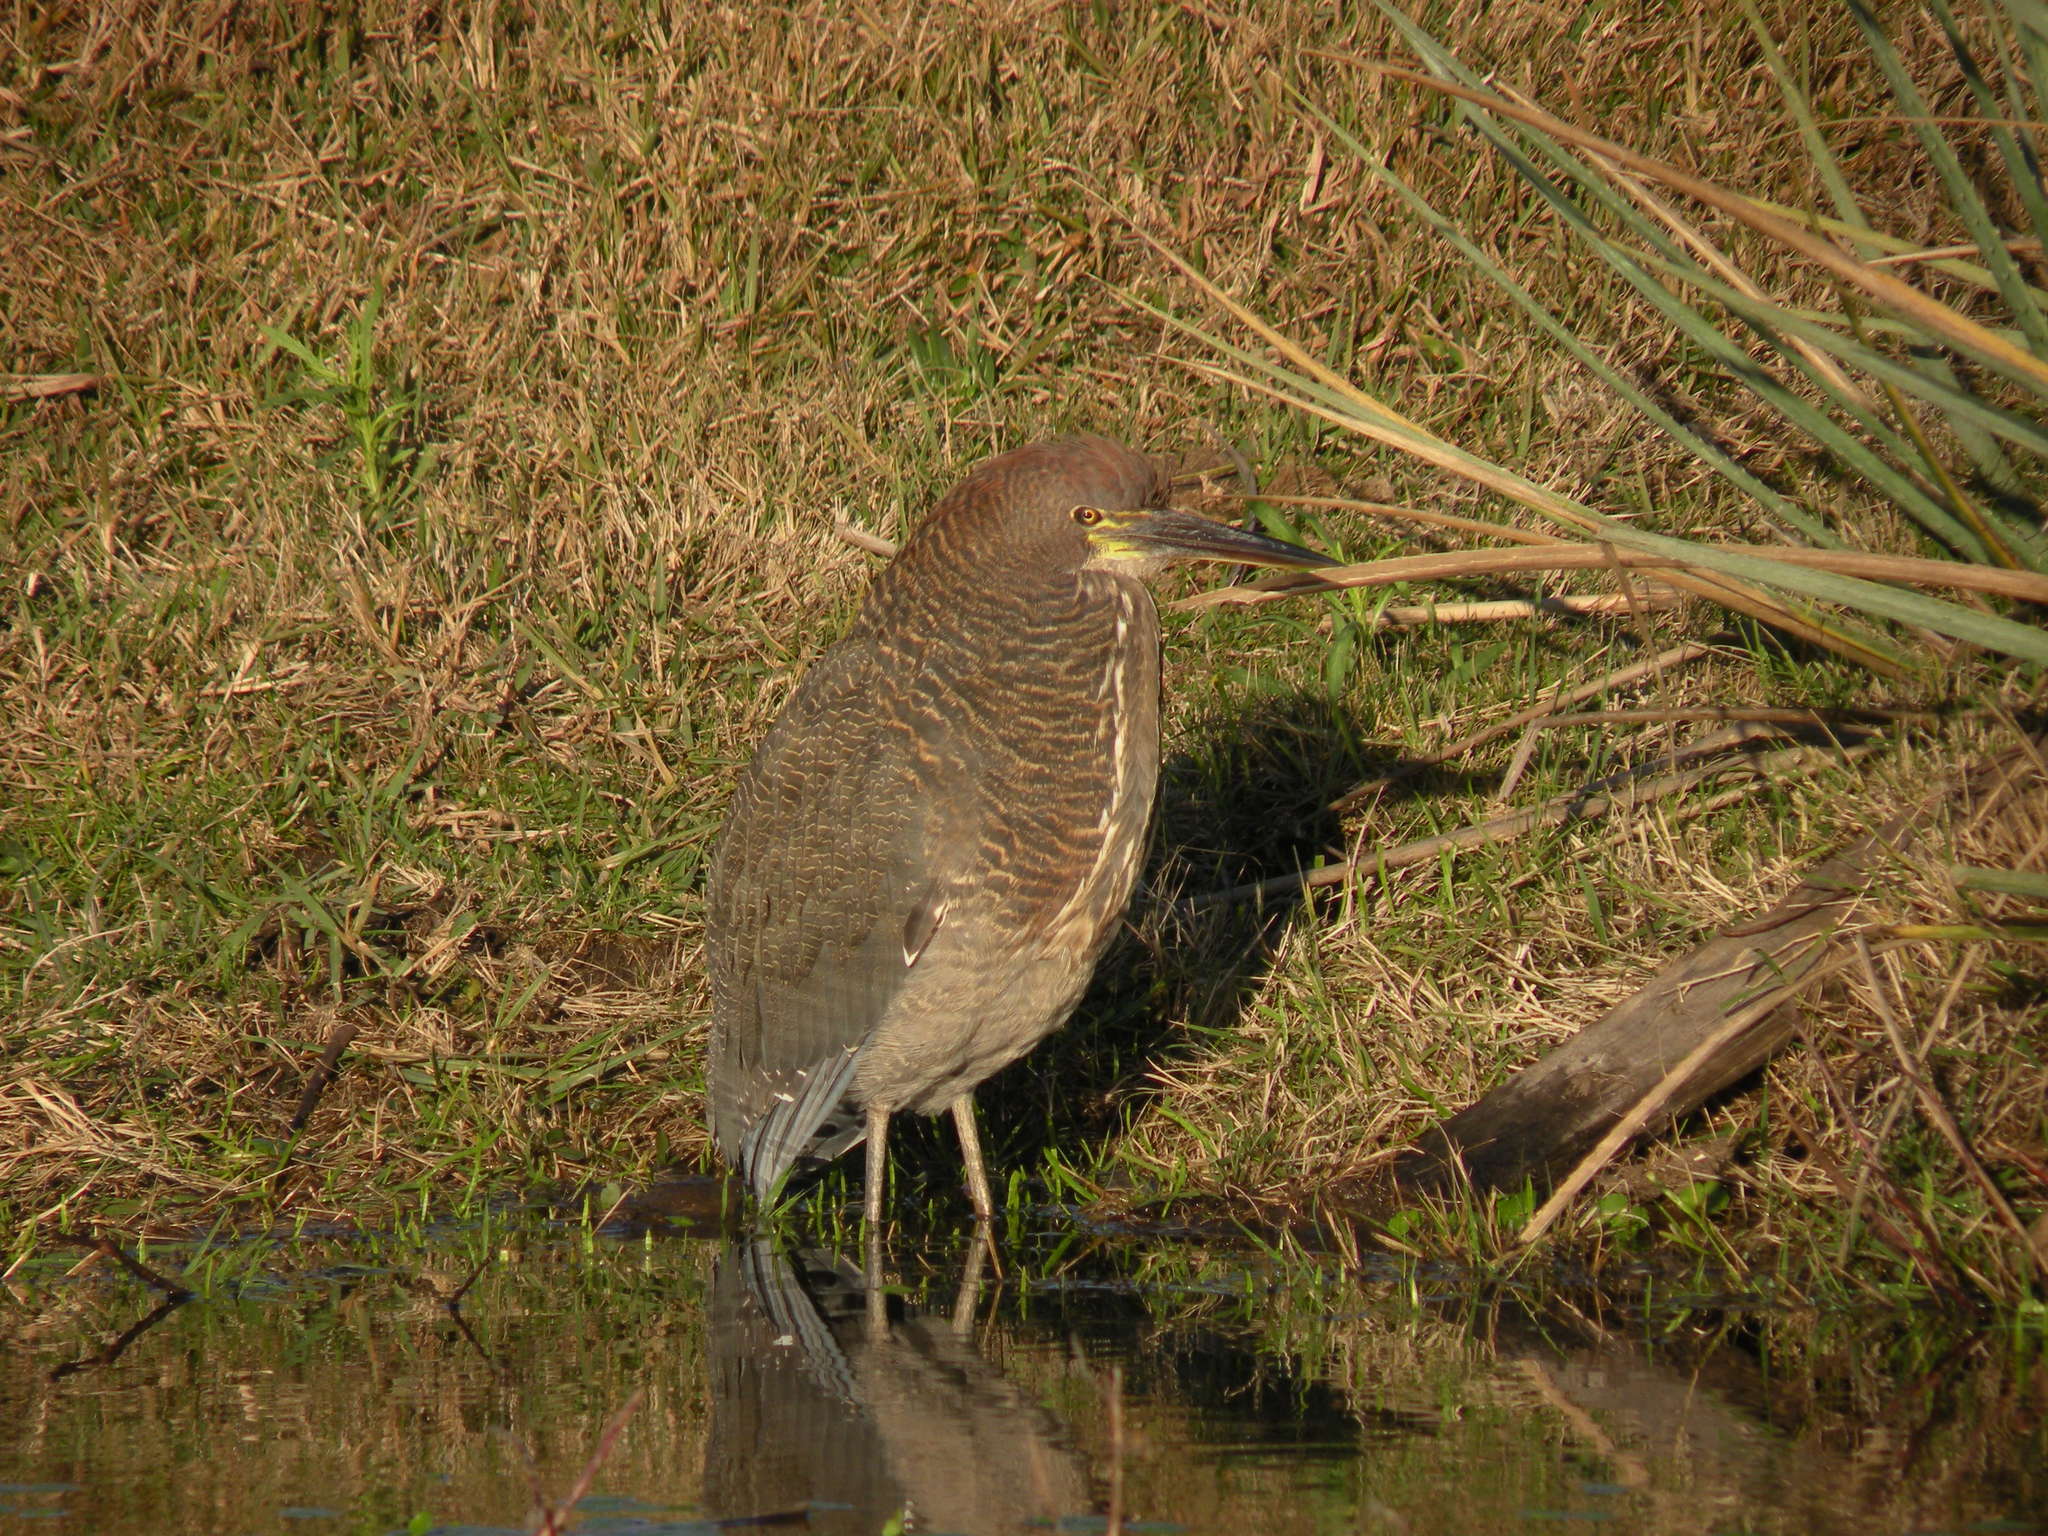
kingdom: Animalia
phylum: Chordata
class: Aves
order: Pelecaniformes
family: Ardeidae
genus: Tigrisoma
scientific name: Tigrisoma lineatum
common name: Rufescent tiger-heron
